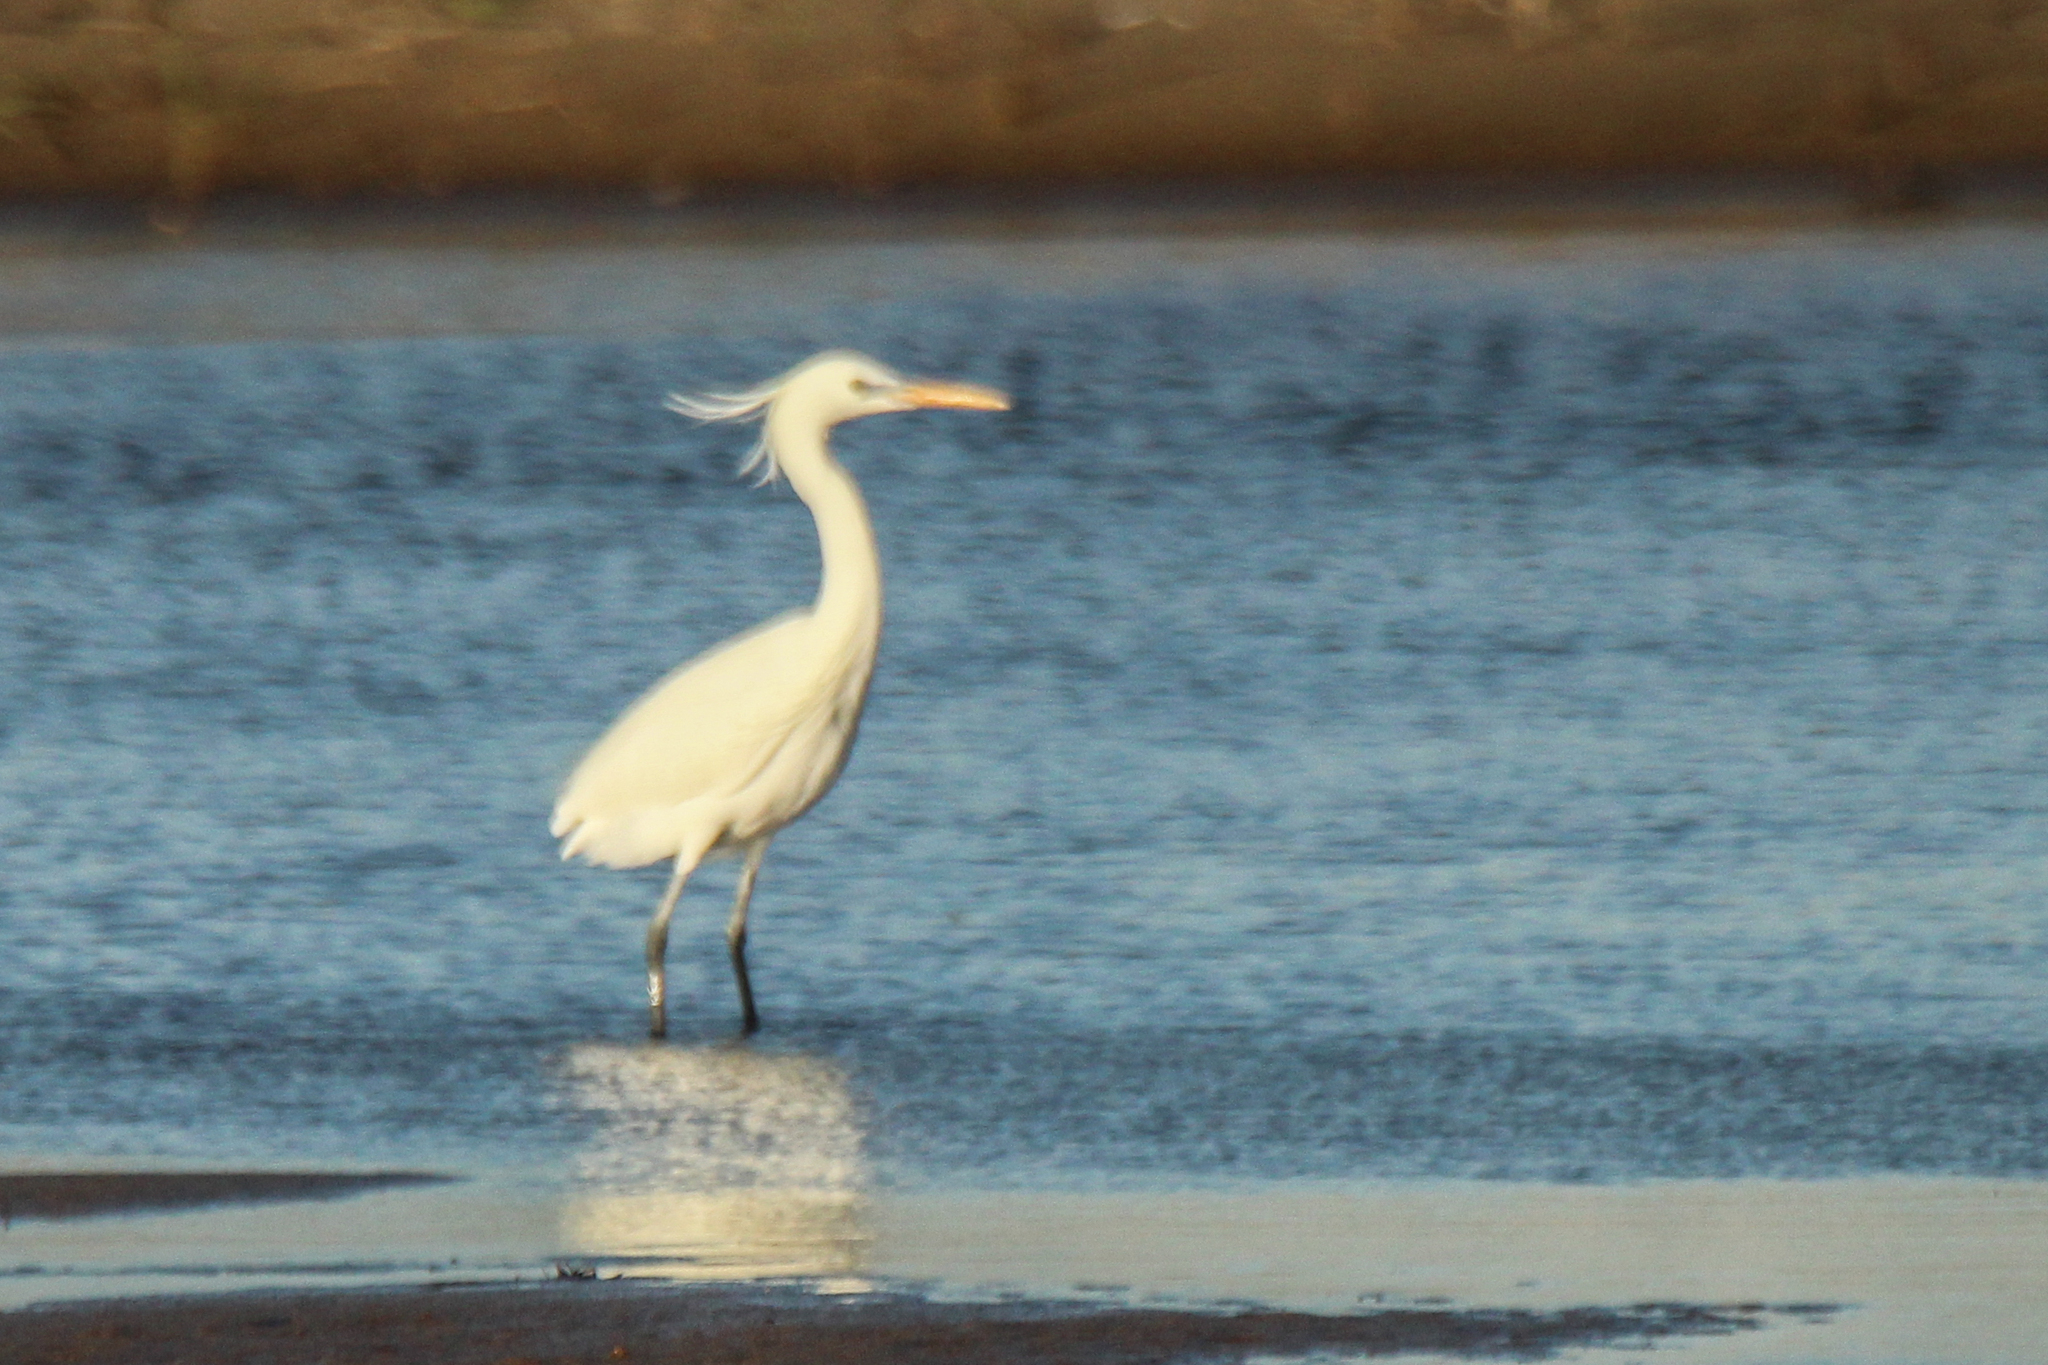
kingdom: Animalia
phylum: Chordata
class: Aves
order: Pelecaniformes
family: Ardeidae
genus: Egretta
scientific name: Egretta eulophotes
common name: Chinese egret
